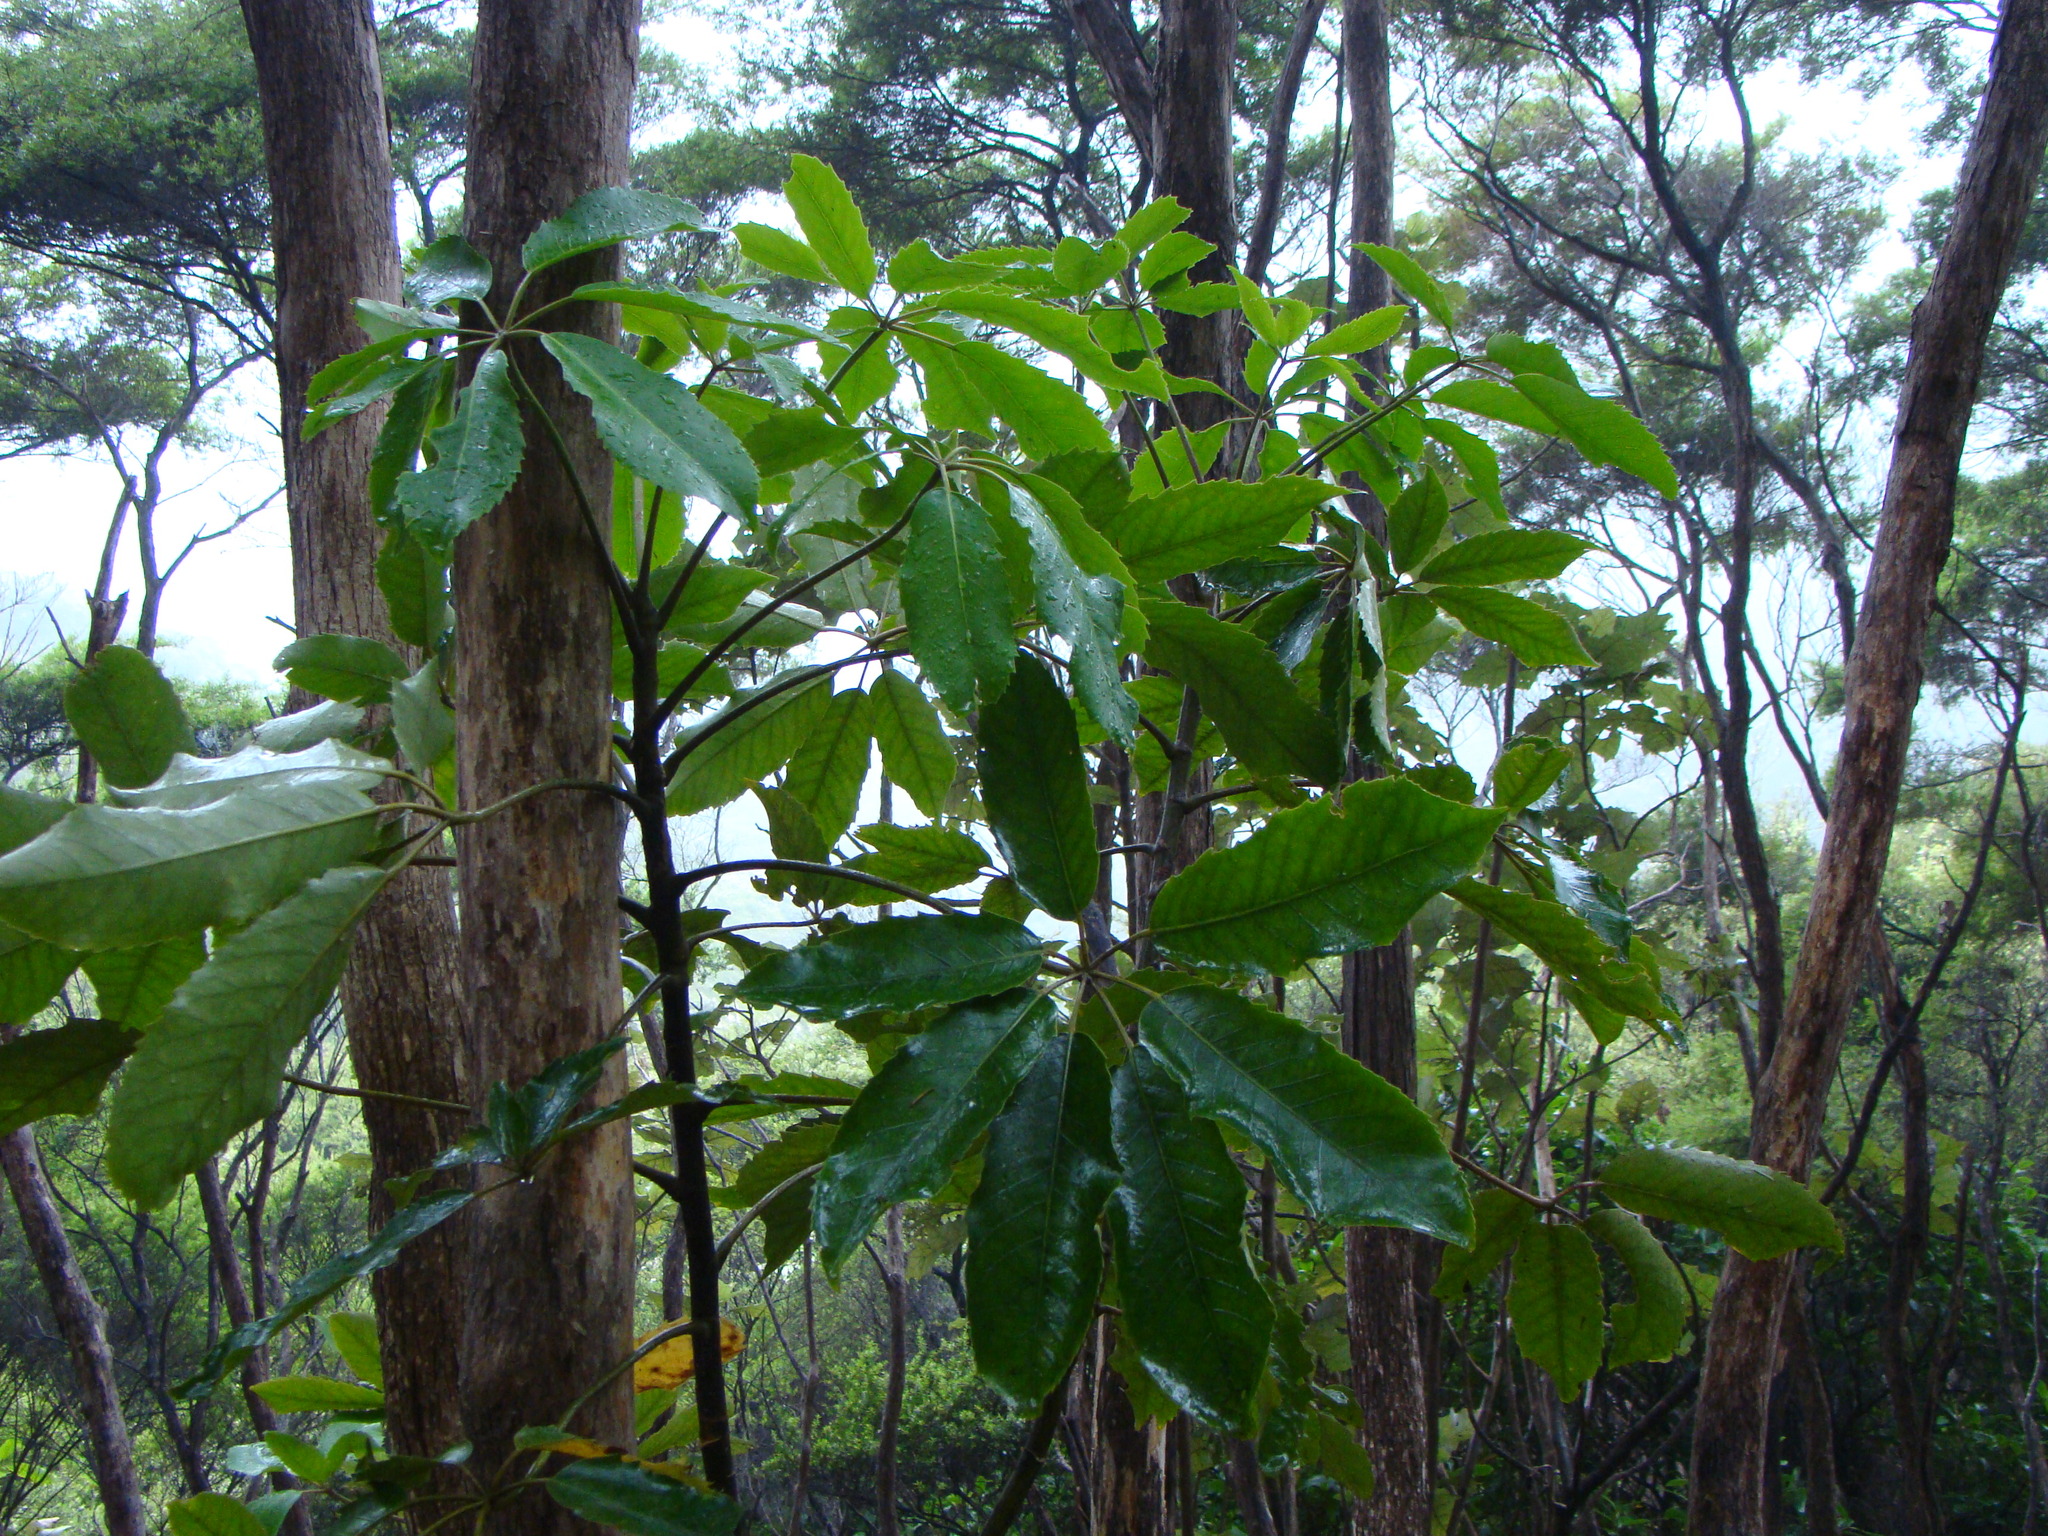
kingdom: Plantae
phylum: Tracheophyta
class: Magnoliopsida
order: Apiales
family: Araliaceae
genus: Neopanax
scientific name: Neopanax arboreus
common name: Five-fingers
